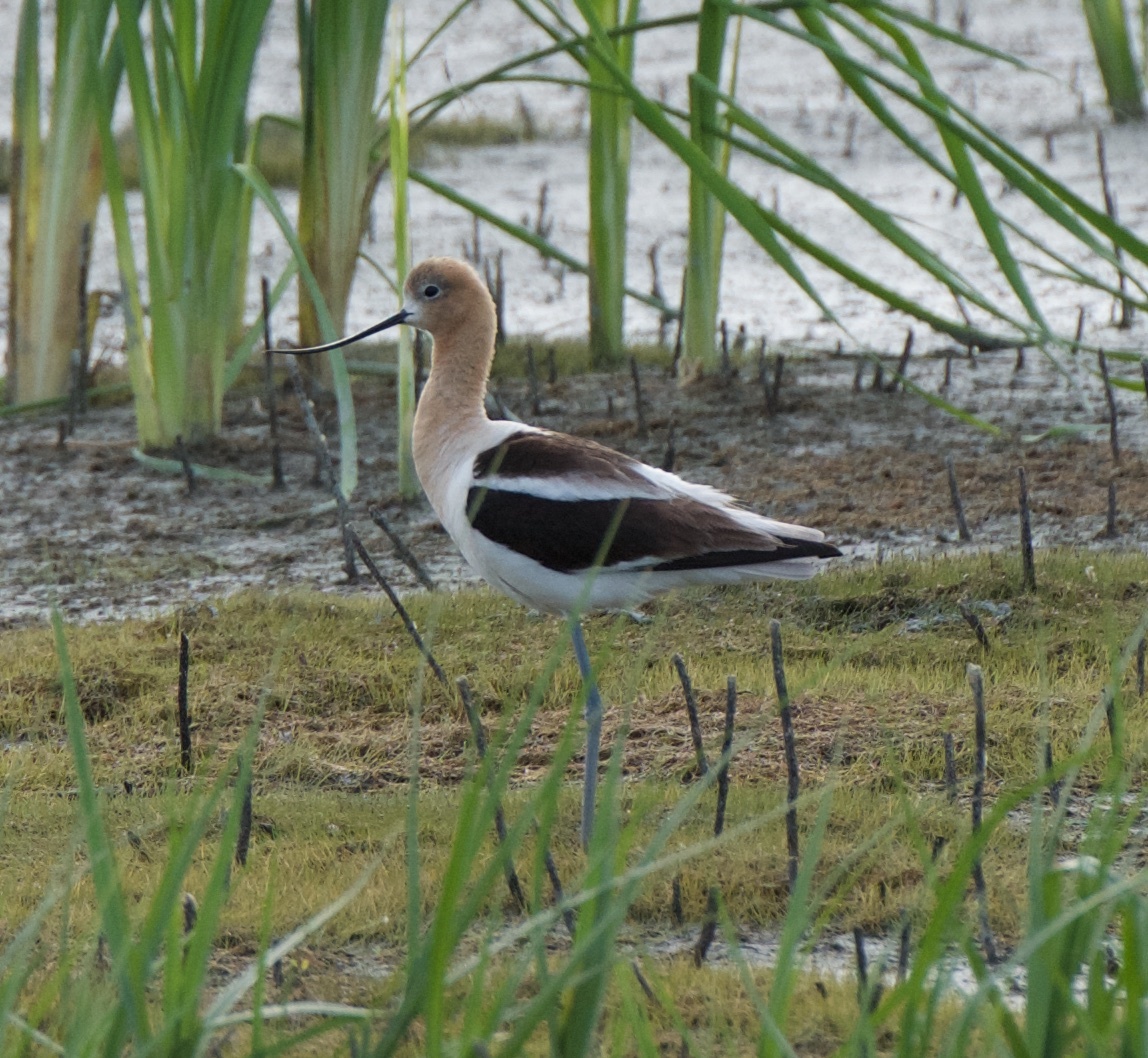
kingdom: Animalia
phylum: Chordata
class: Aves
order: Charadriiformes
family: Recurvirostridae
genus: Recurvirostra
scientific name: Recurvirostra americana
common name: American avocet
